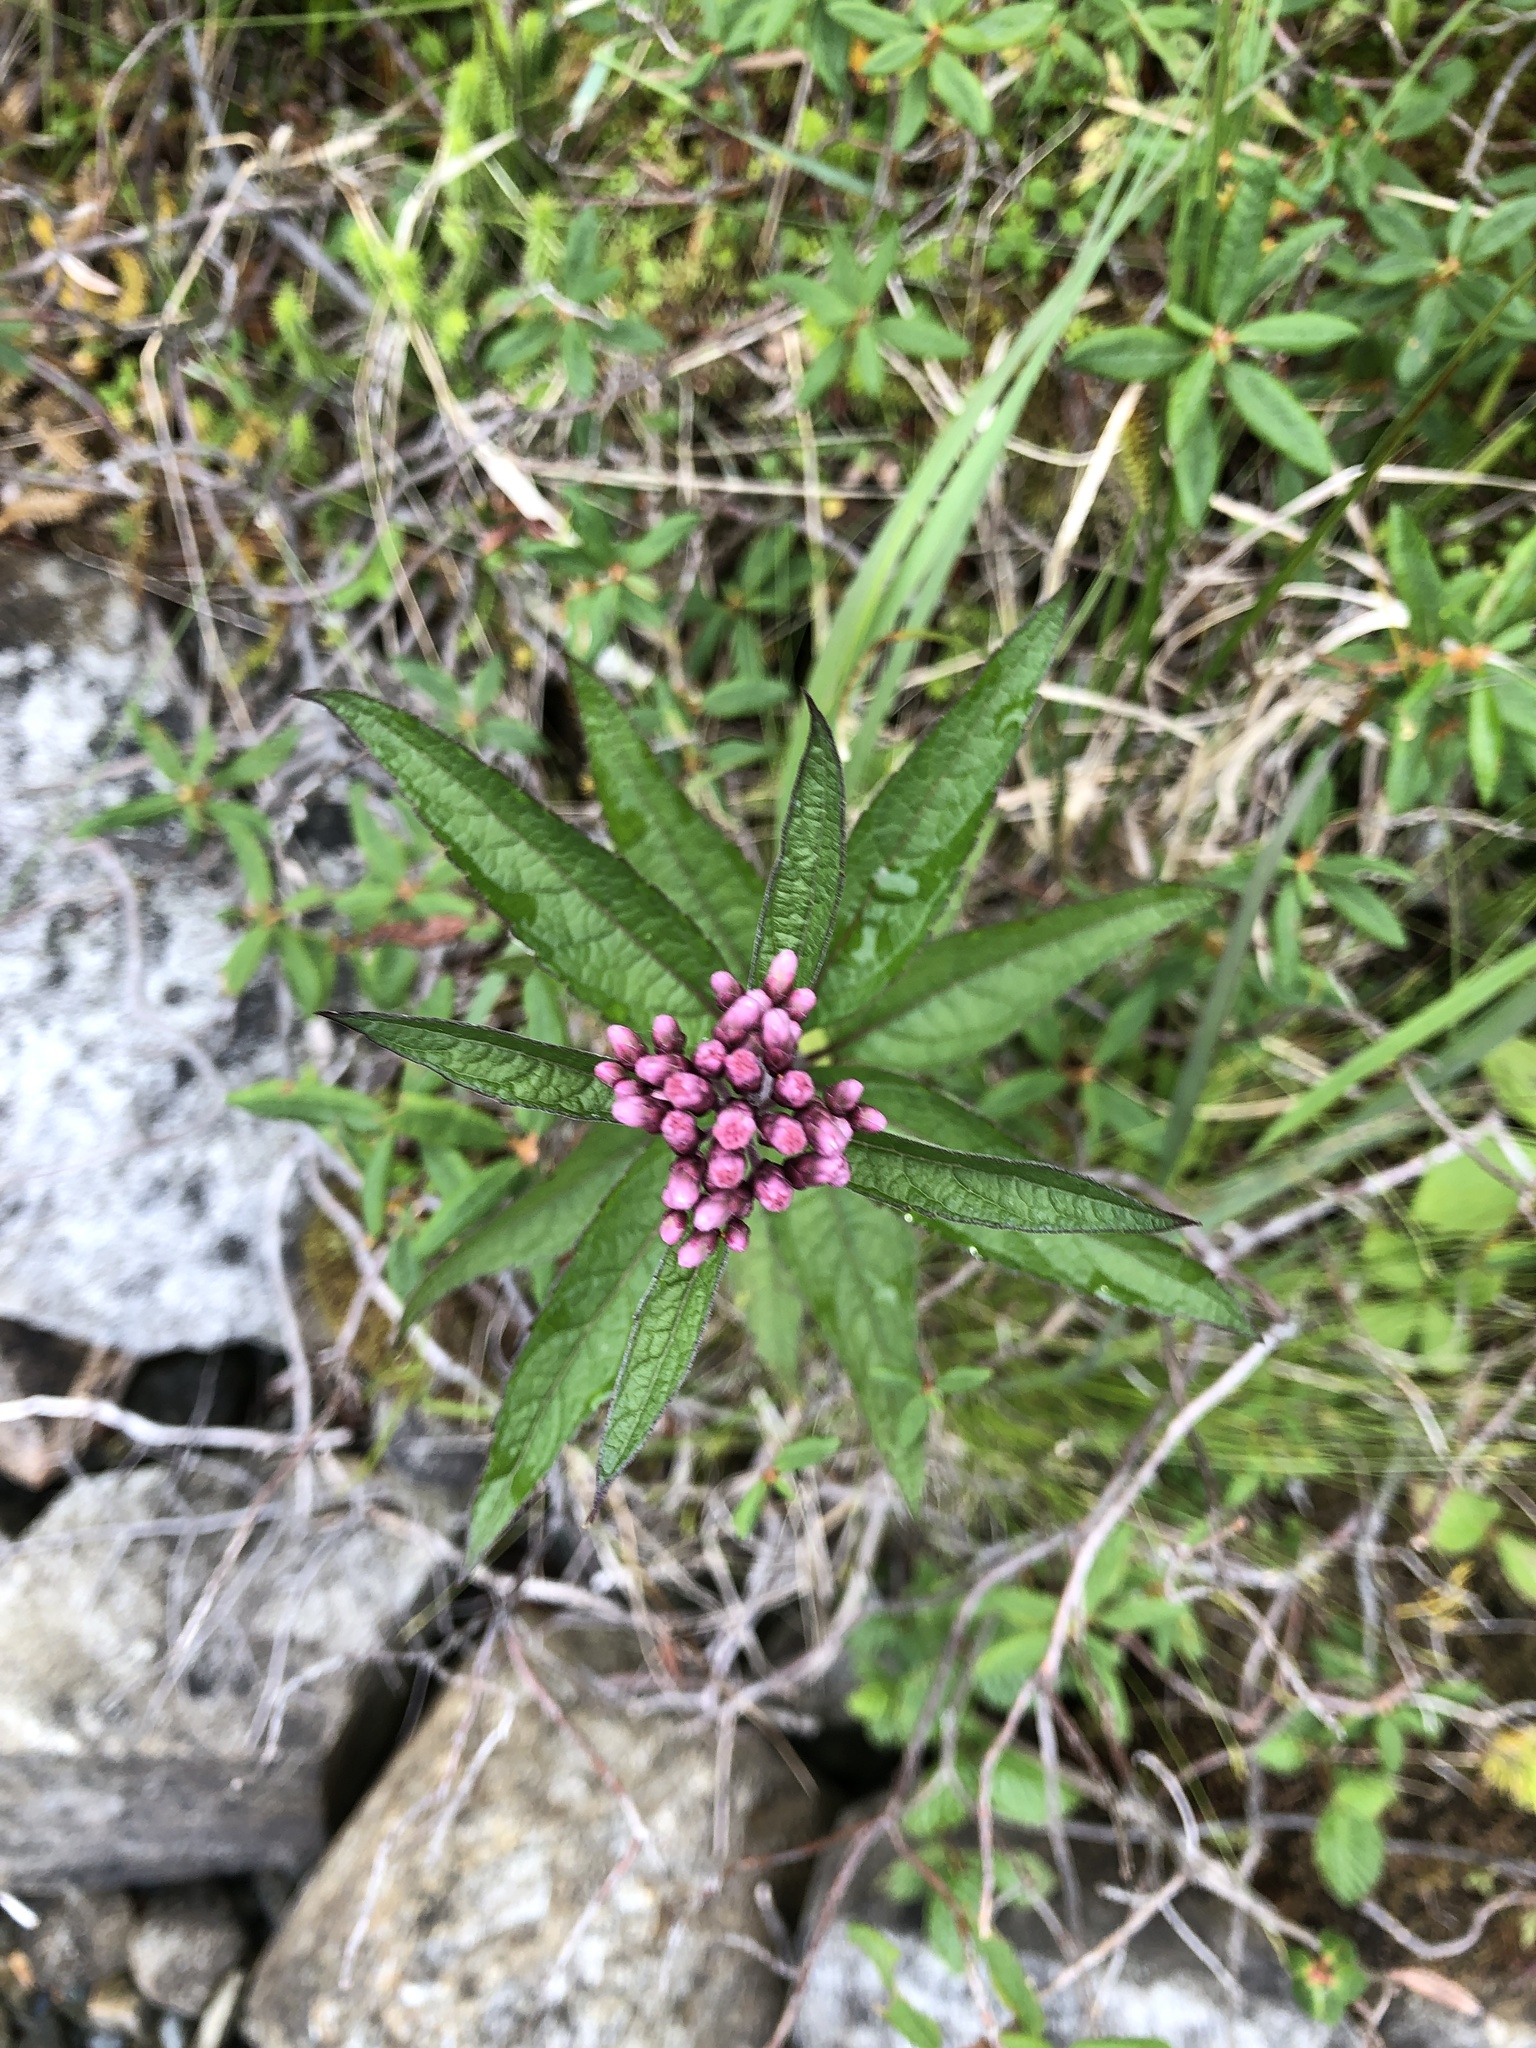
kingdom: Plantae
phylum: Tracheophyta
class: Magnoliopsida
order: Asterales
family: Asteraceae
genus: Eutrochium
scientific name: Eutrochium maculatum
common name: Spotted joe pye weed
